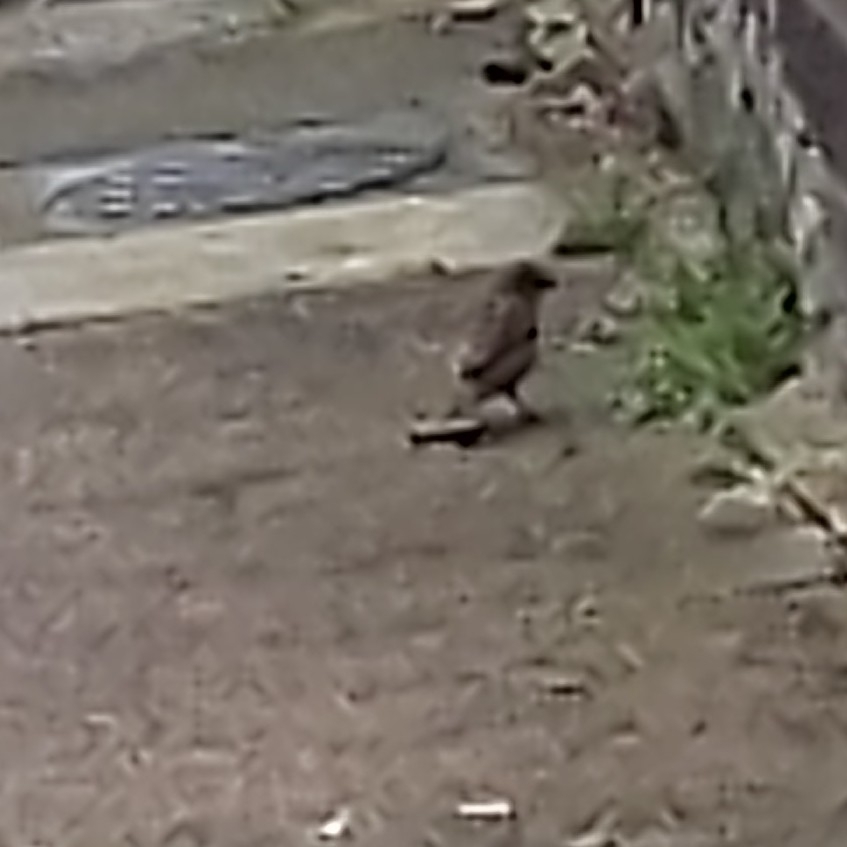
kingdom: Animalia
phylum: Chordata
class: Aves
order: Passeriformes
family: Passeridae
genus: Passer
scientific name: Passer domesticus
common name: House sparrow
